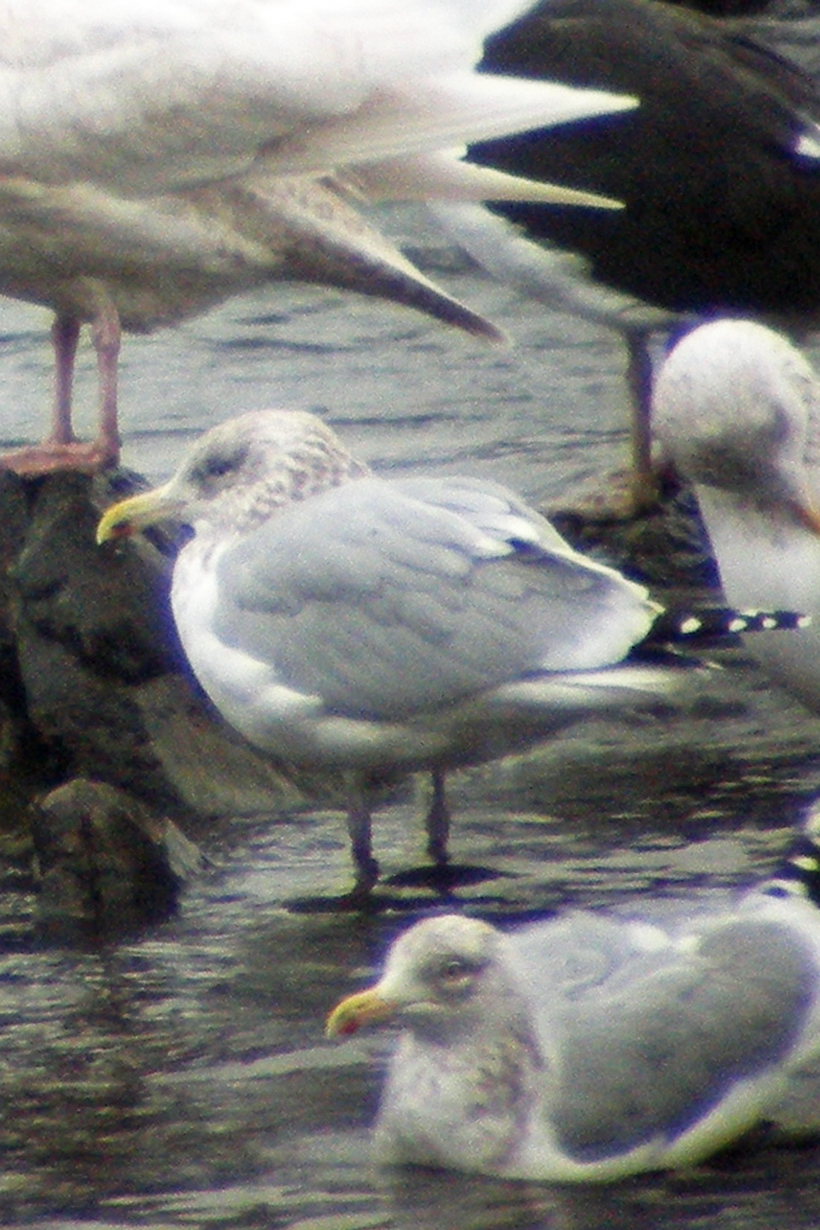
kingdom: Animalia
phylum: Chordata
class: Aves
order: Charadriiformes
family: Laridae
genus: Larus
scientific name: Larus argentatus
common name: Herring gull
